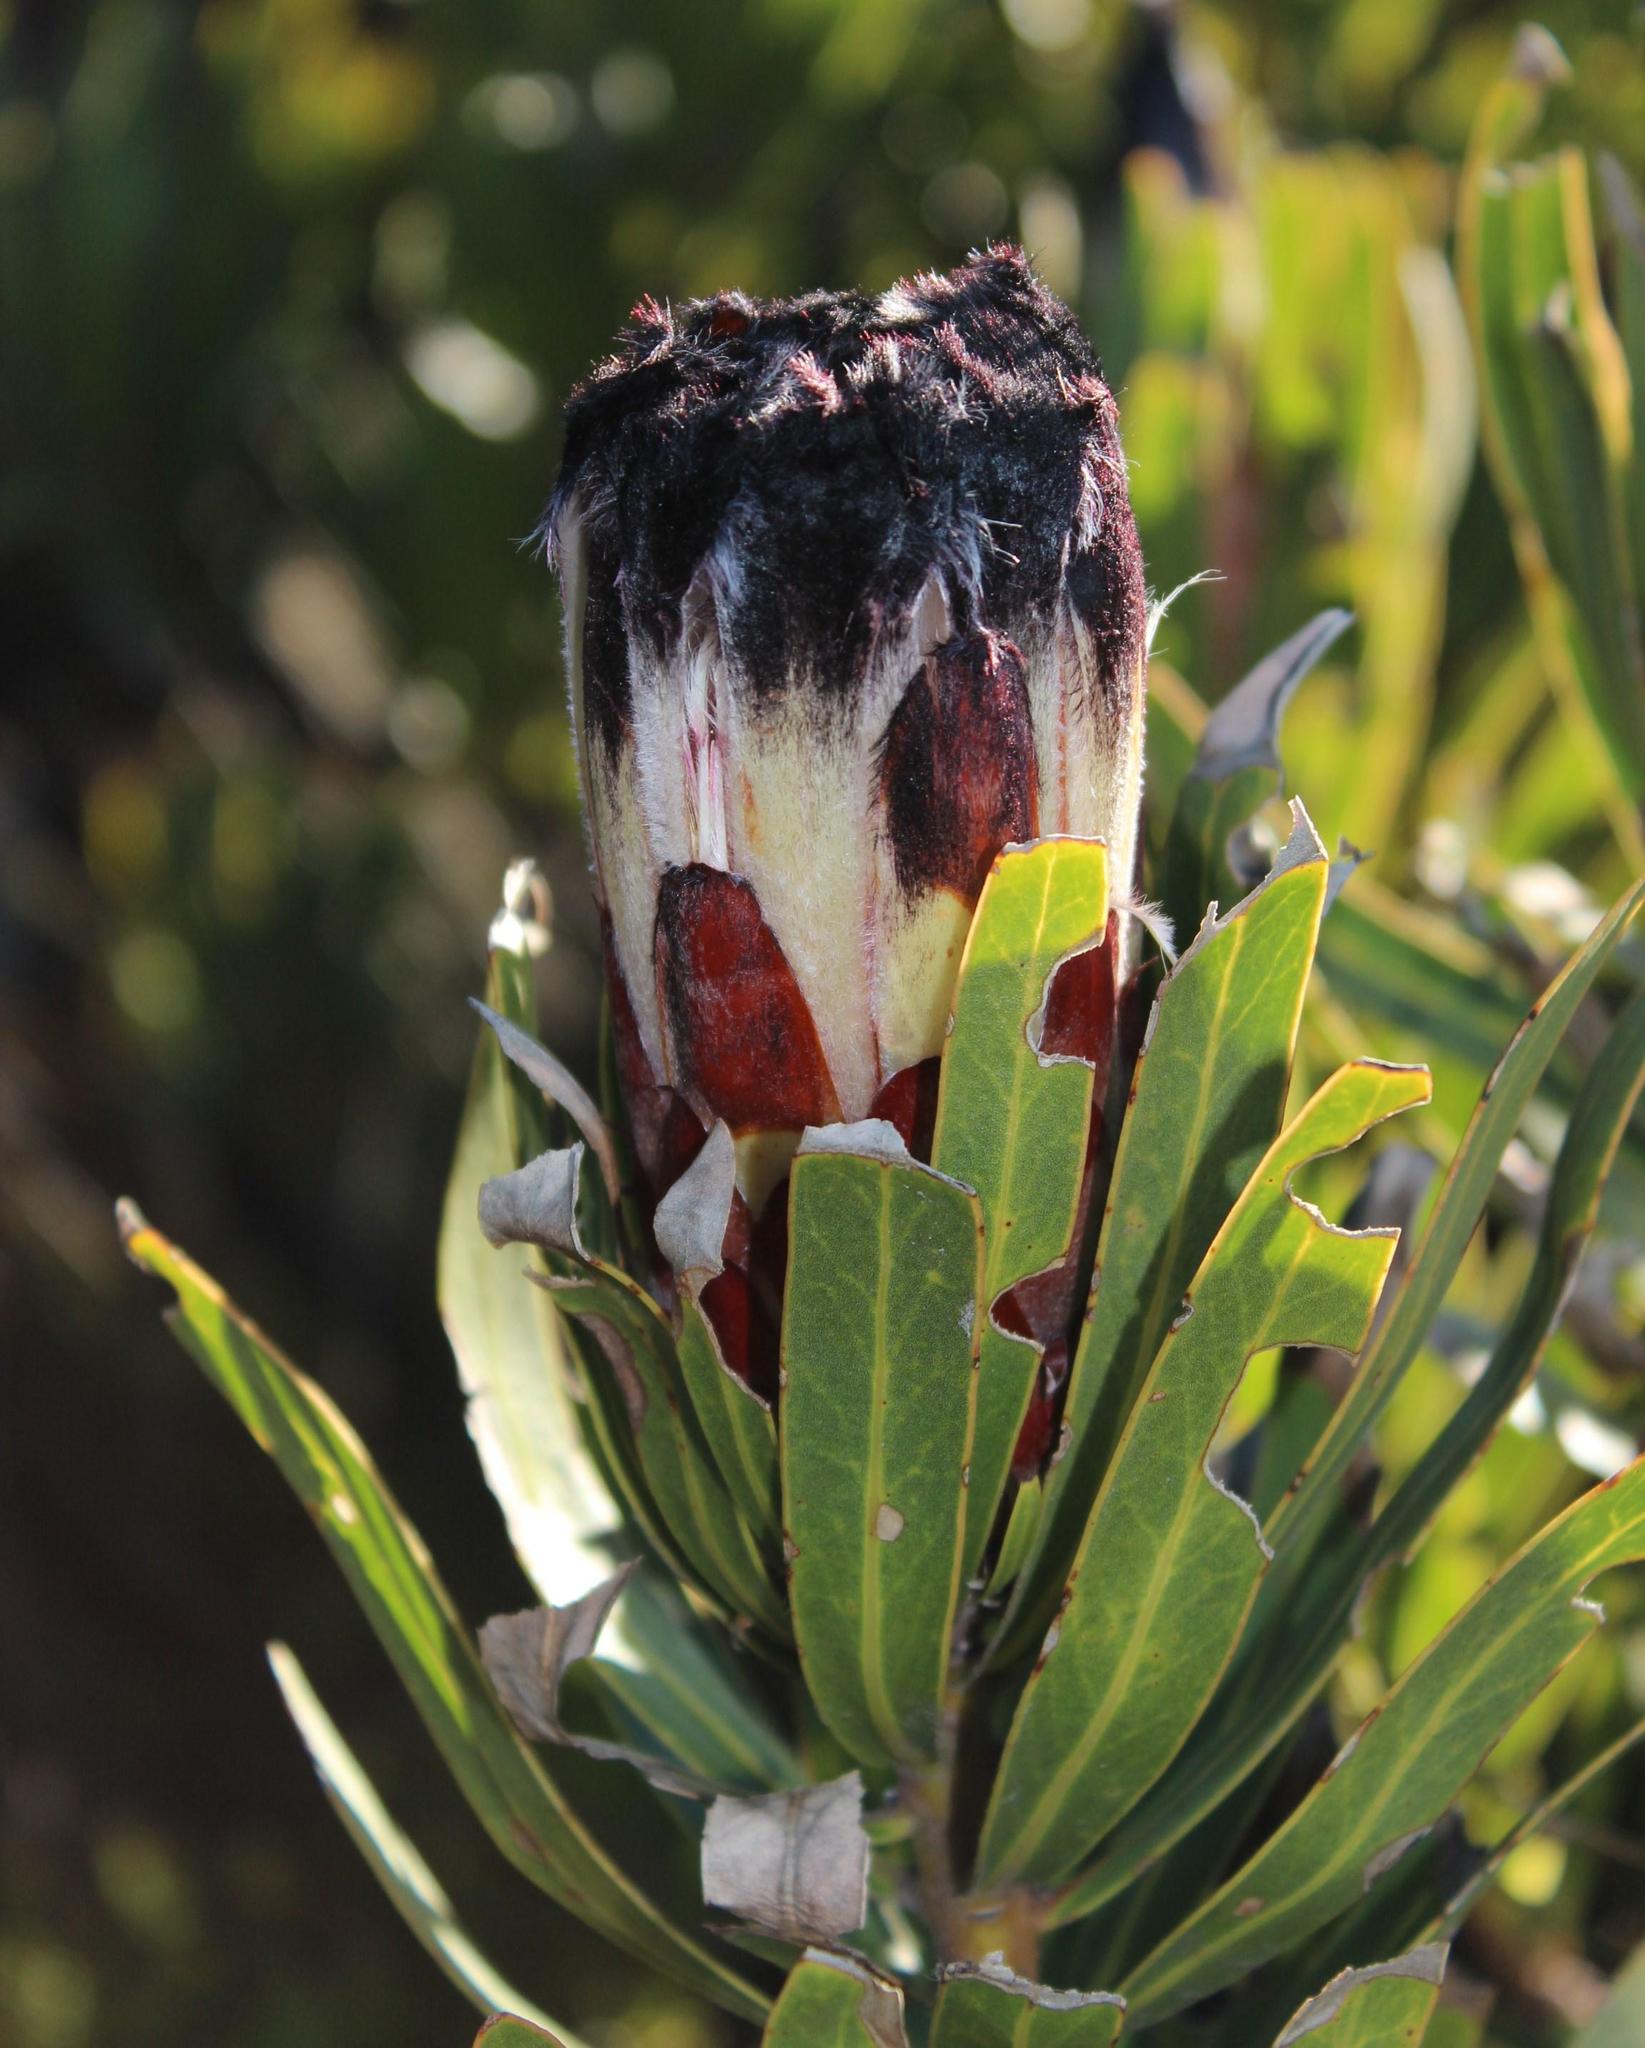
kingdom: Plantae
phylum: Tracheophyta
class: Magnoliopsida
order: Proteales
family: Proteaceae
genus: Protea
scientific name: Protea lepidocarpodendron
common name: Black-bearded protea
